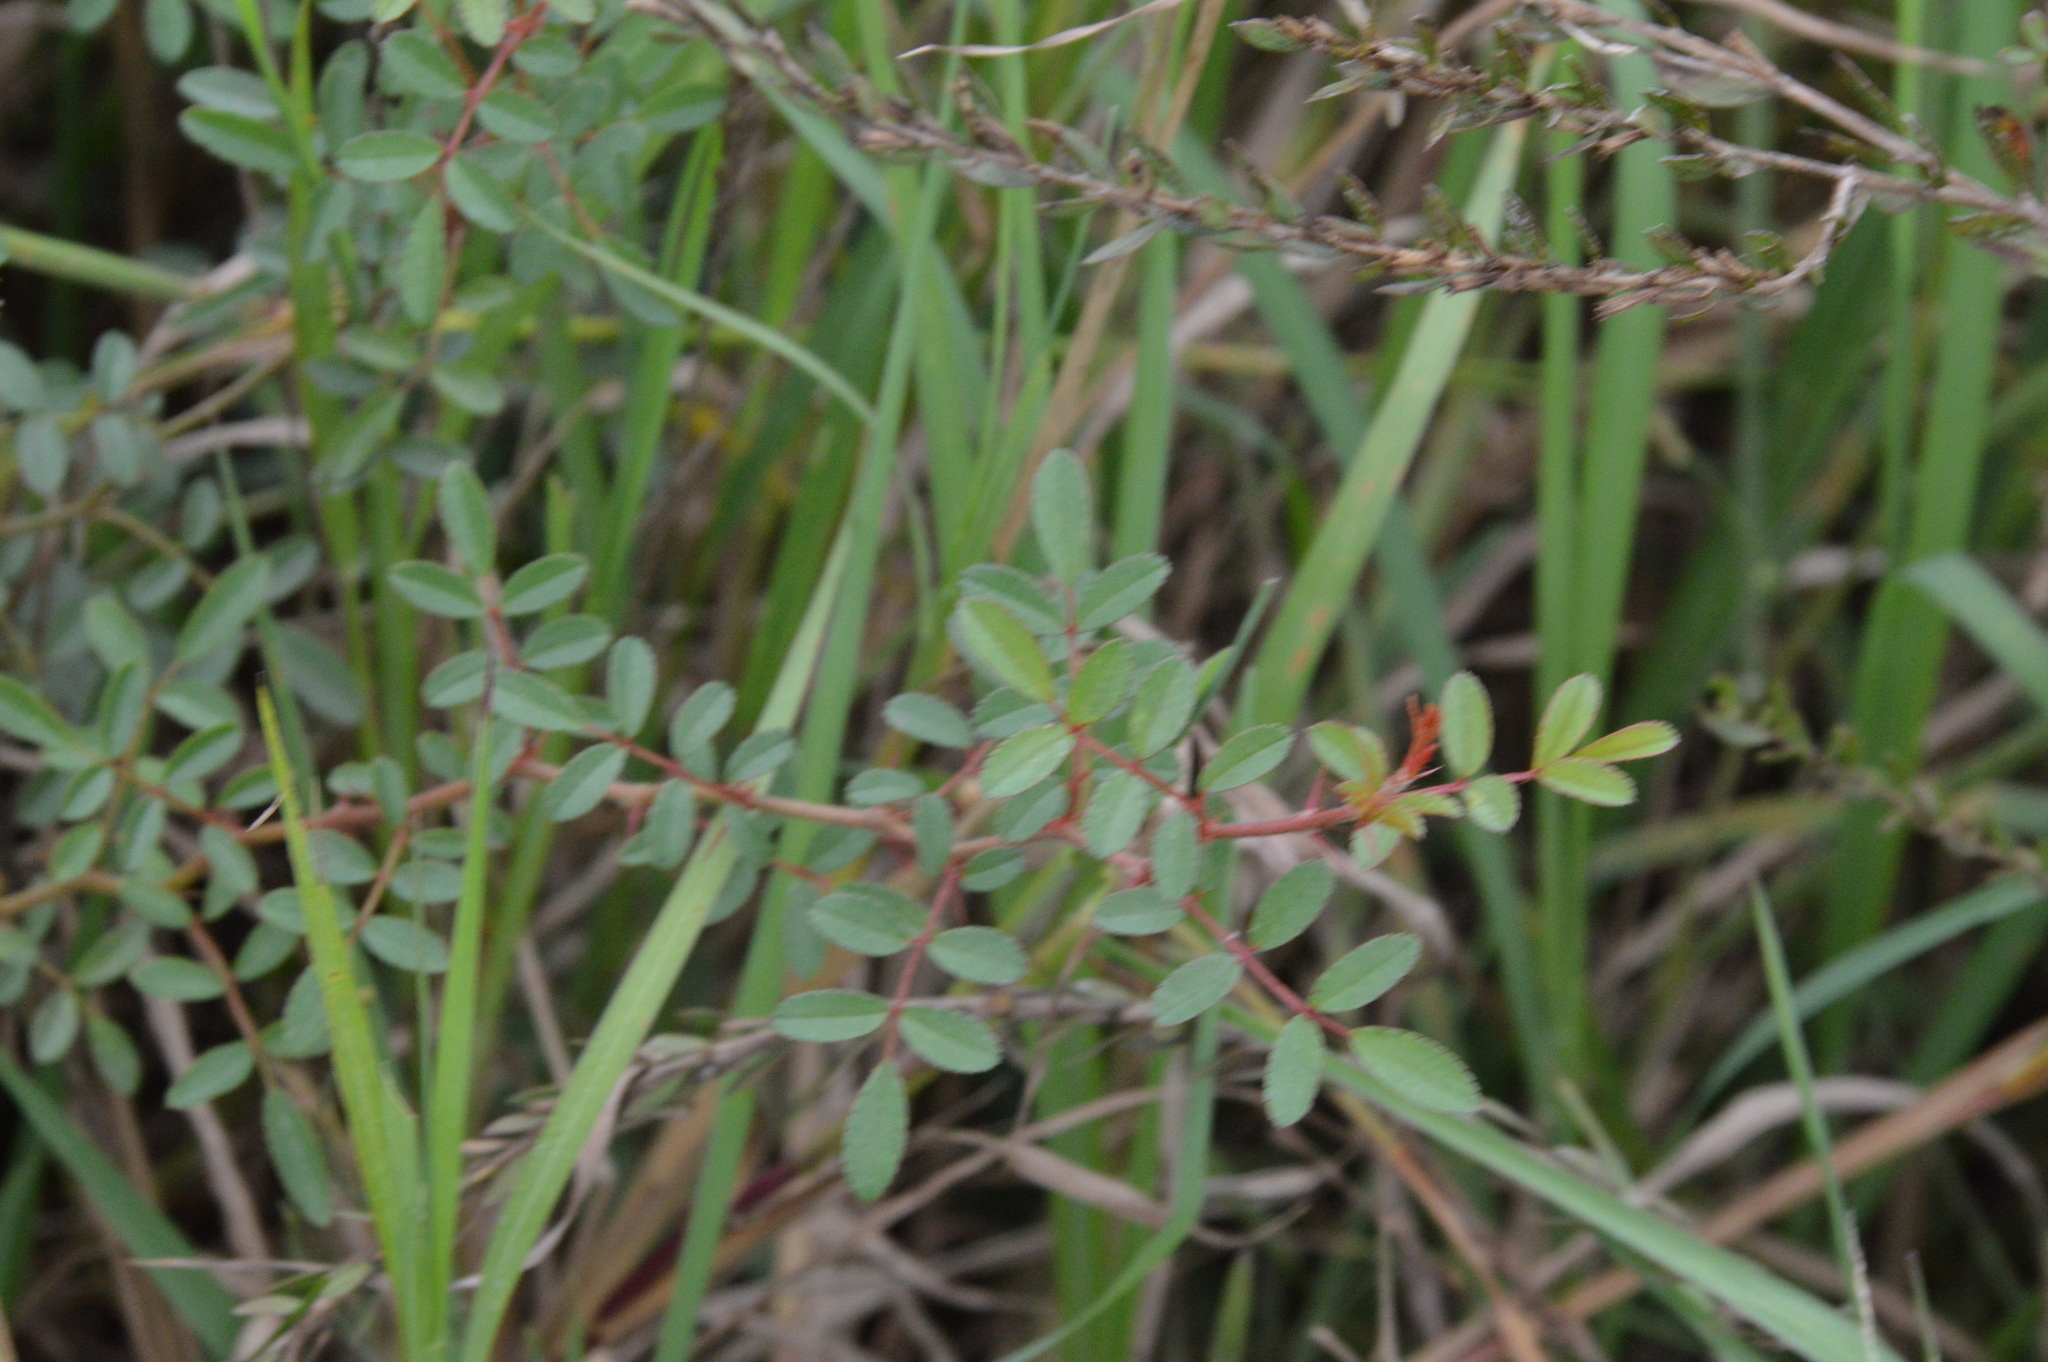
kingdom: Plantae
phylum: Tracheophyta
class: Magnoliopsida
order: Rosales
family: Rosaceae
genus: Rosa
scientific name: Rosa bracteata
